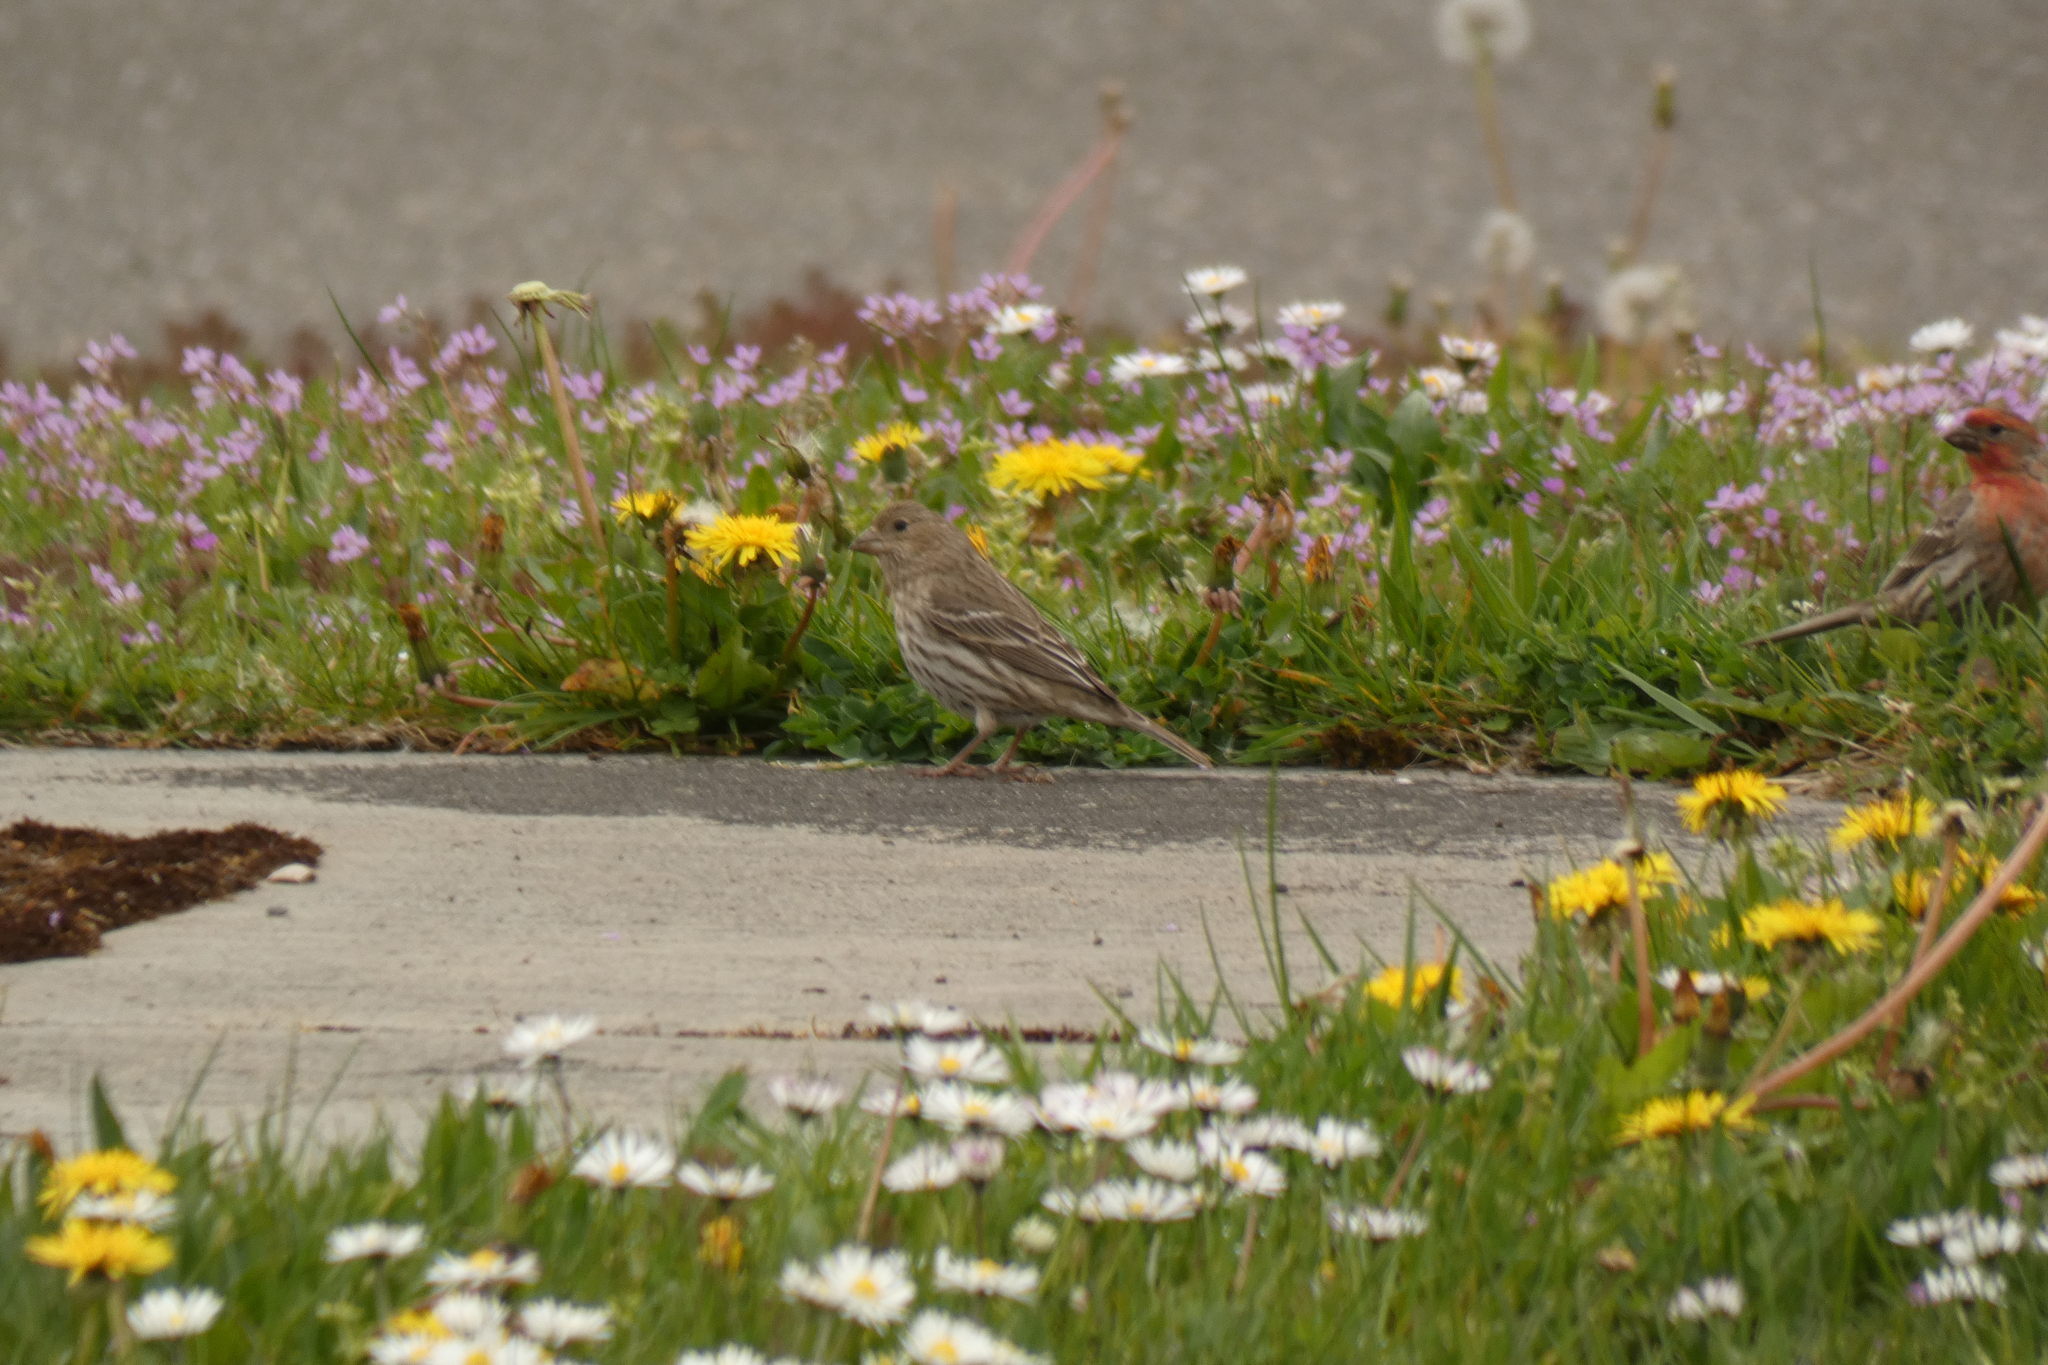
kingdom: Animalia
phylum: Chordata
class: Aves
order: Passeriformes
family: Fringillidae
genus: Haemorhous
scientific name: Haemorhous mexicanus
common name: House finch
